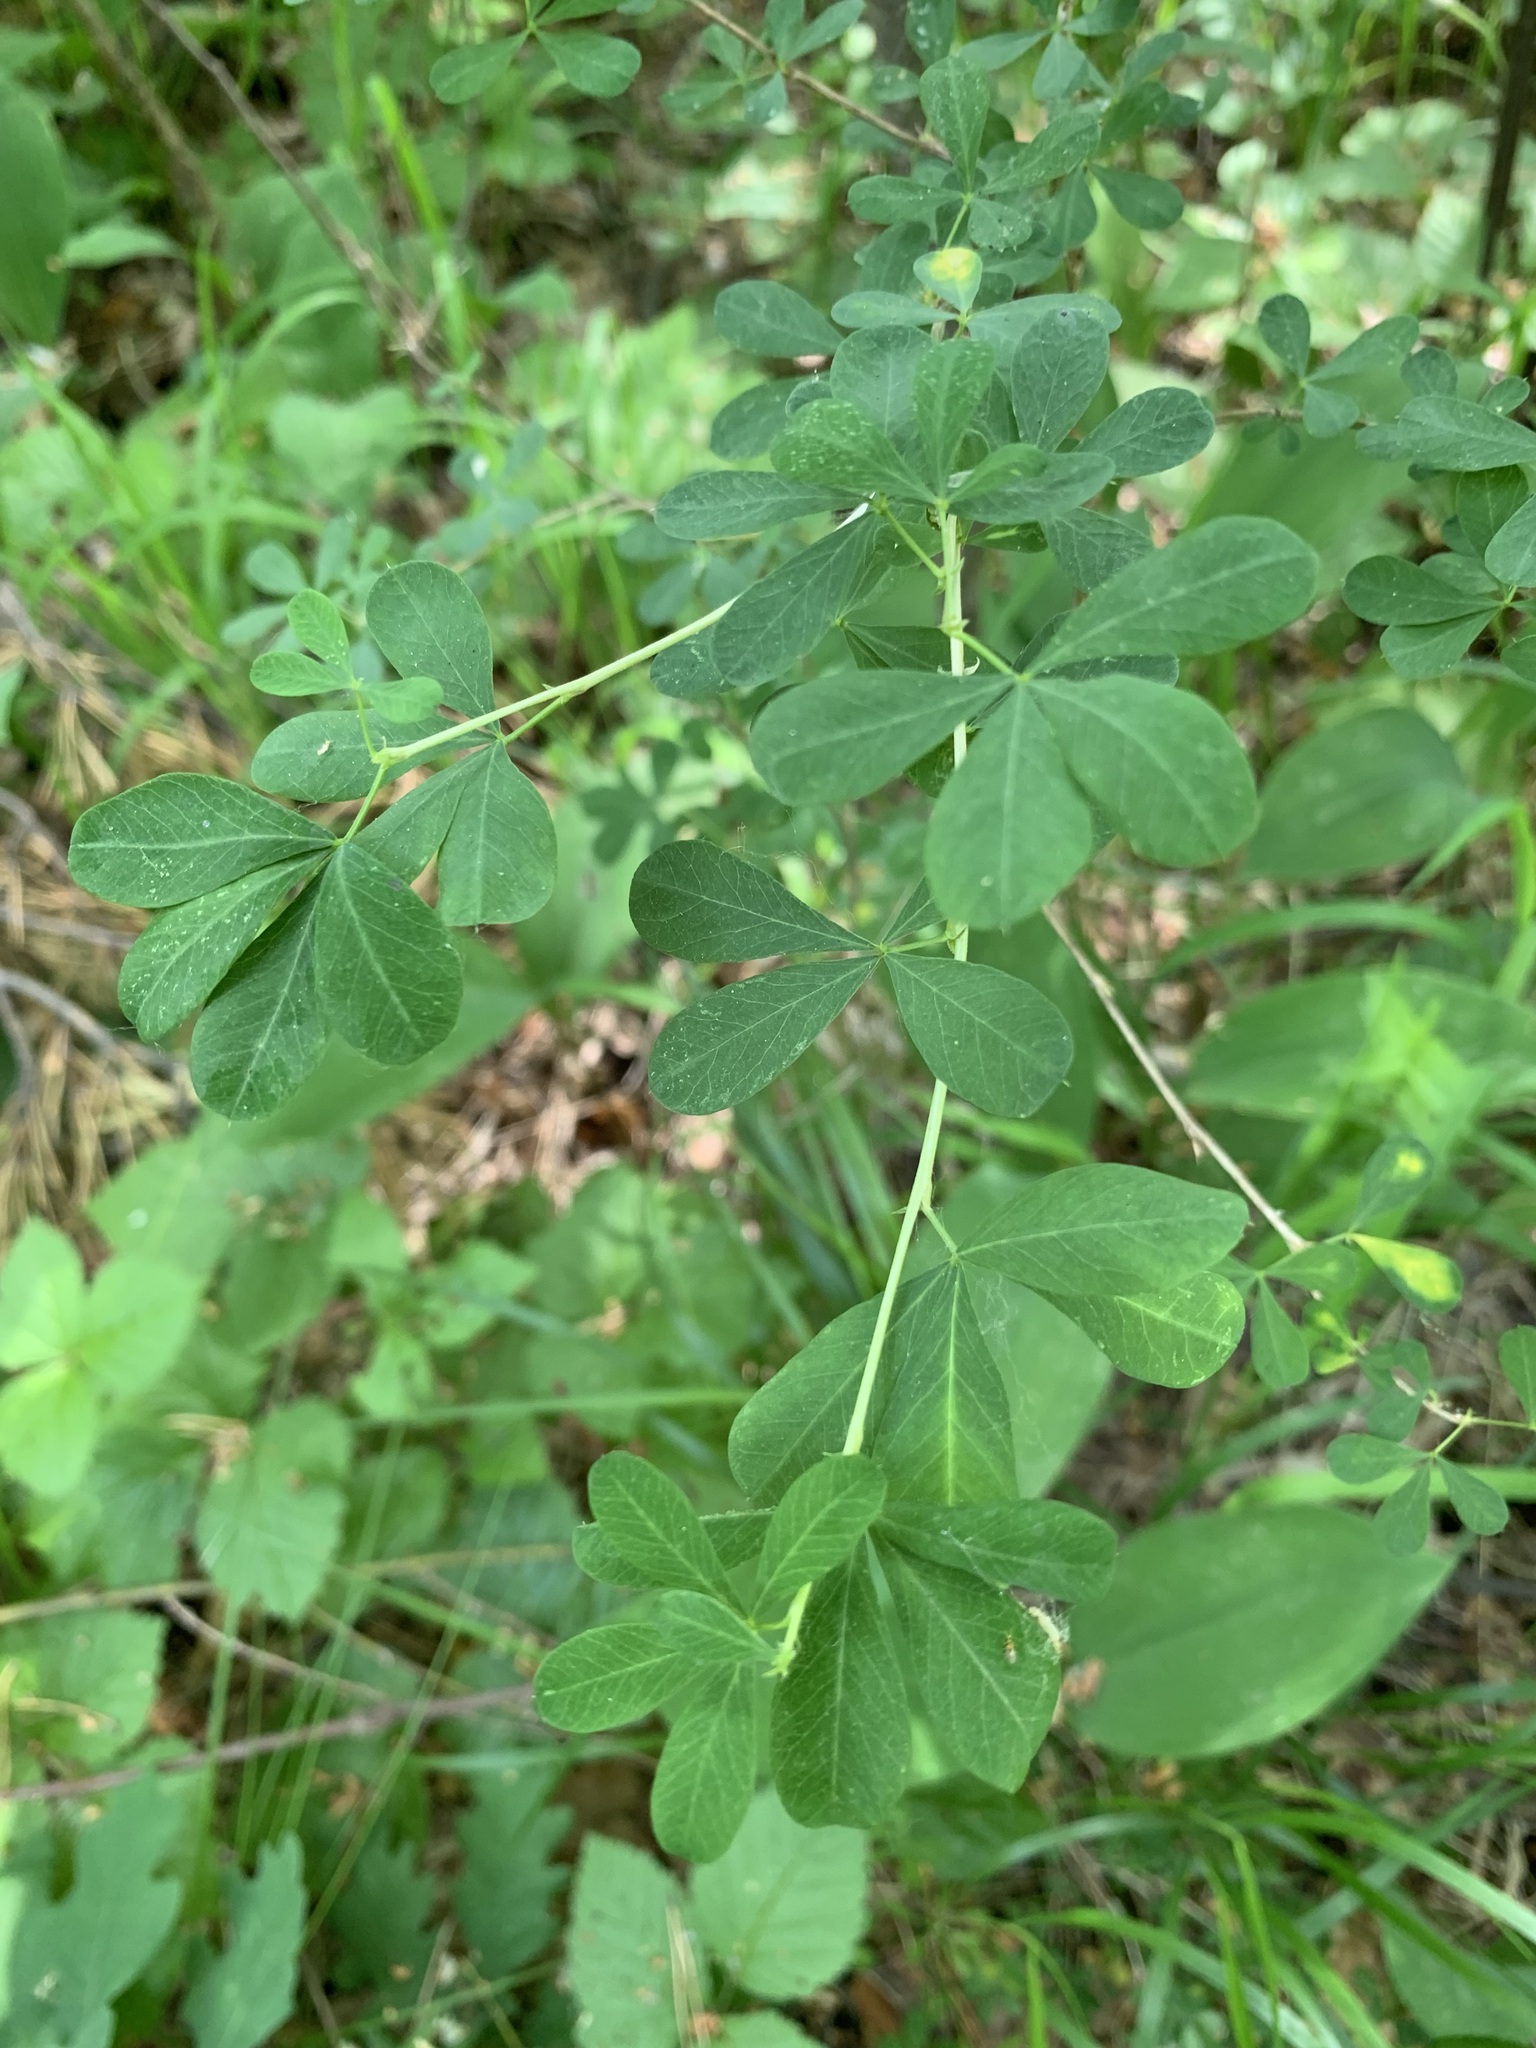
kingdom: Plantae
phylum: Tracheophyta
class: Magnoliopsida
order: Fabales
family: Fabaceae
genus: Caragana
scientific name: Caragana frutex
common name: Russian peashrub
